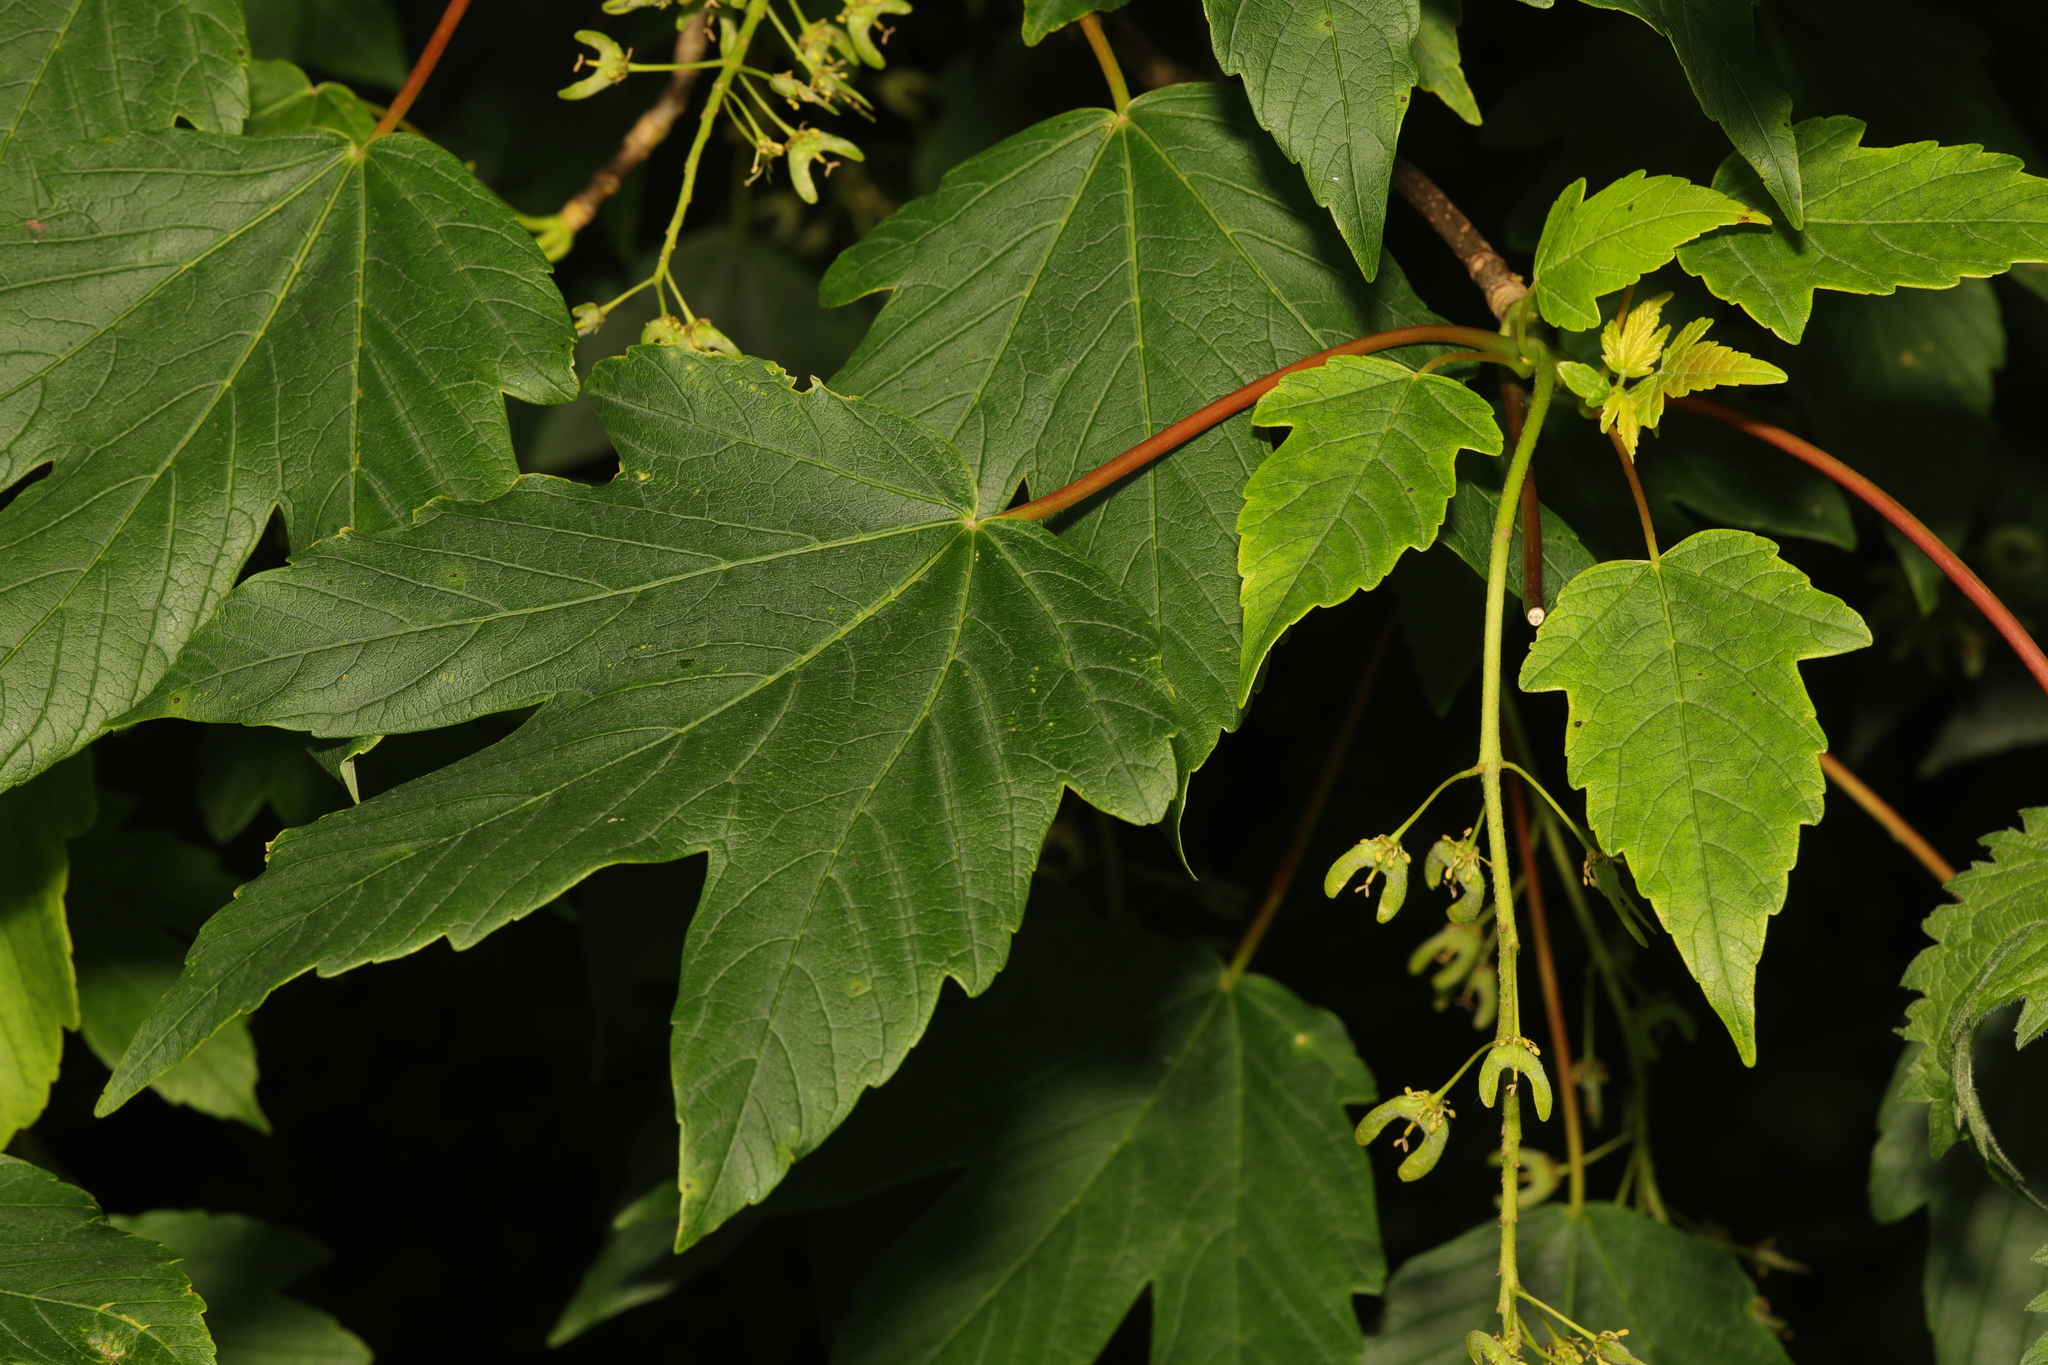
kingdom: Plantae
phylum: Tracheophyta
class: Magnoliopsida
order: Sapindales
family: Sapindaceae
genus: Acer
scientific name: Acer pseudoplatanus
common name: Sycamore
